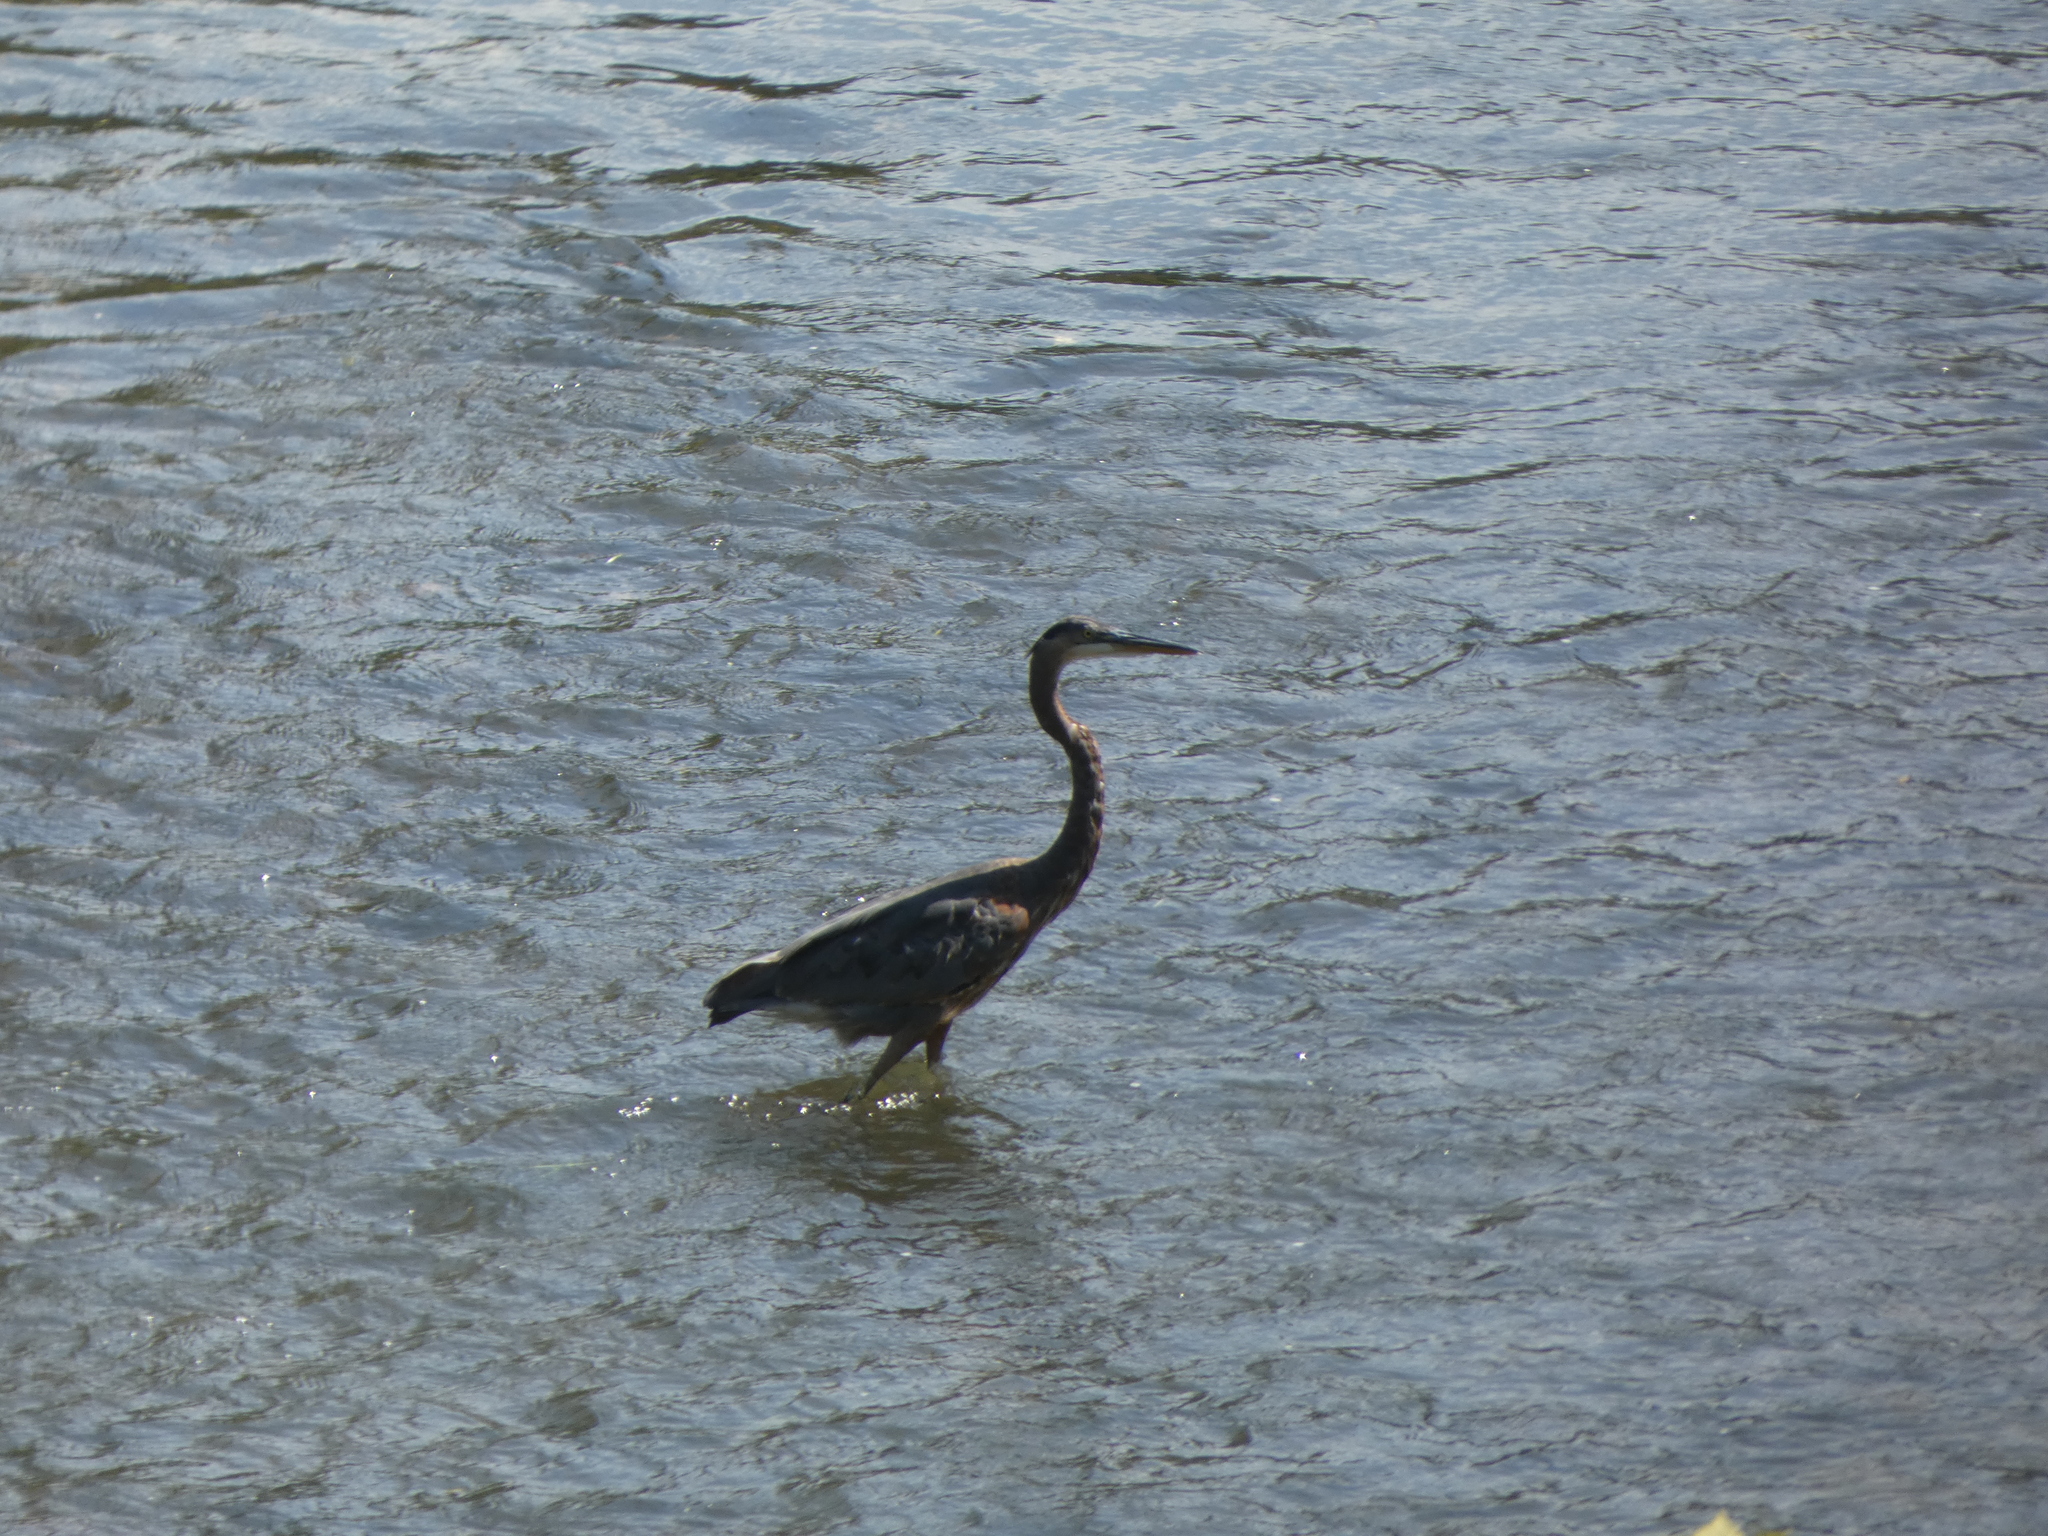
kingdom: Animalia
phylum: Chordata
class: Aves
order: Pelecaniformes
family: Ardeidae
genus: Ardea
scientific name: Ardea herodias
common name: Great blue heron
